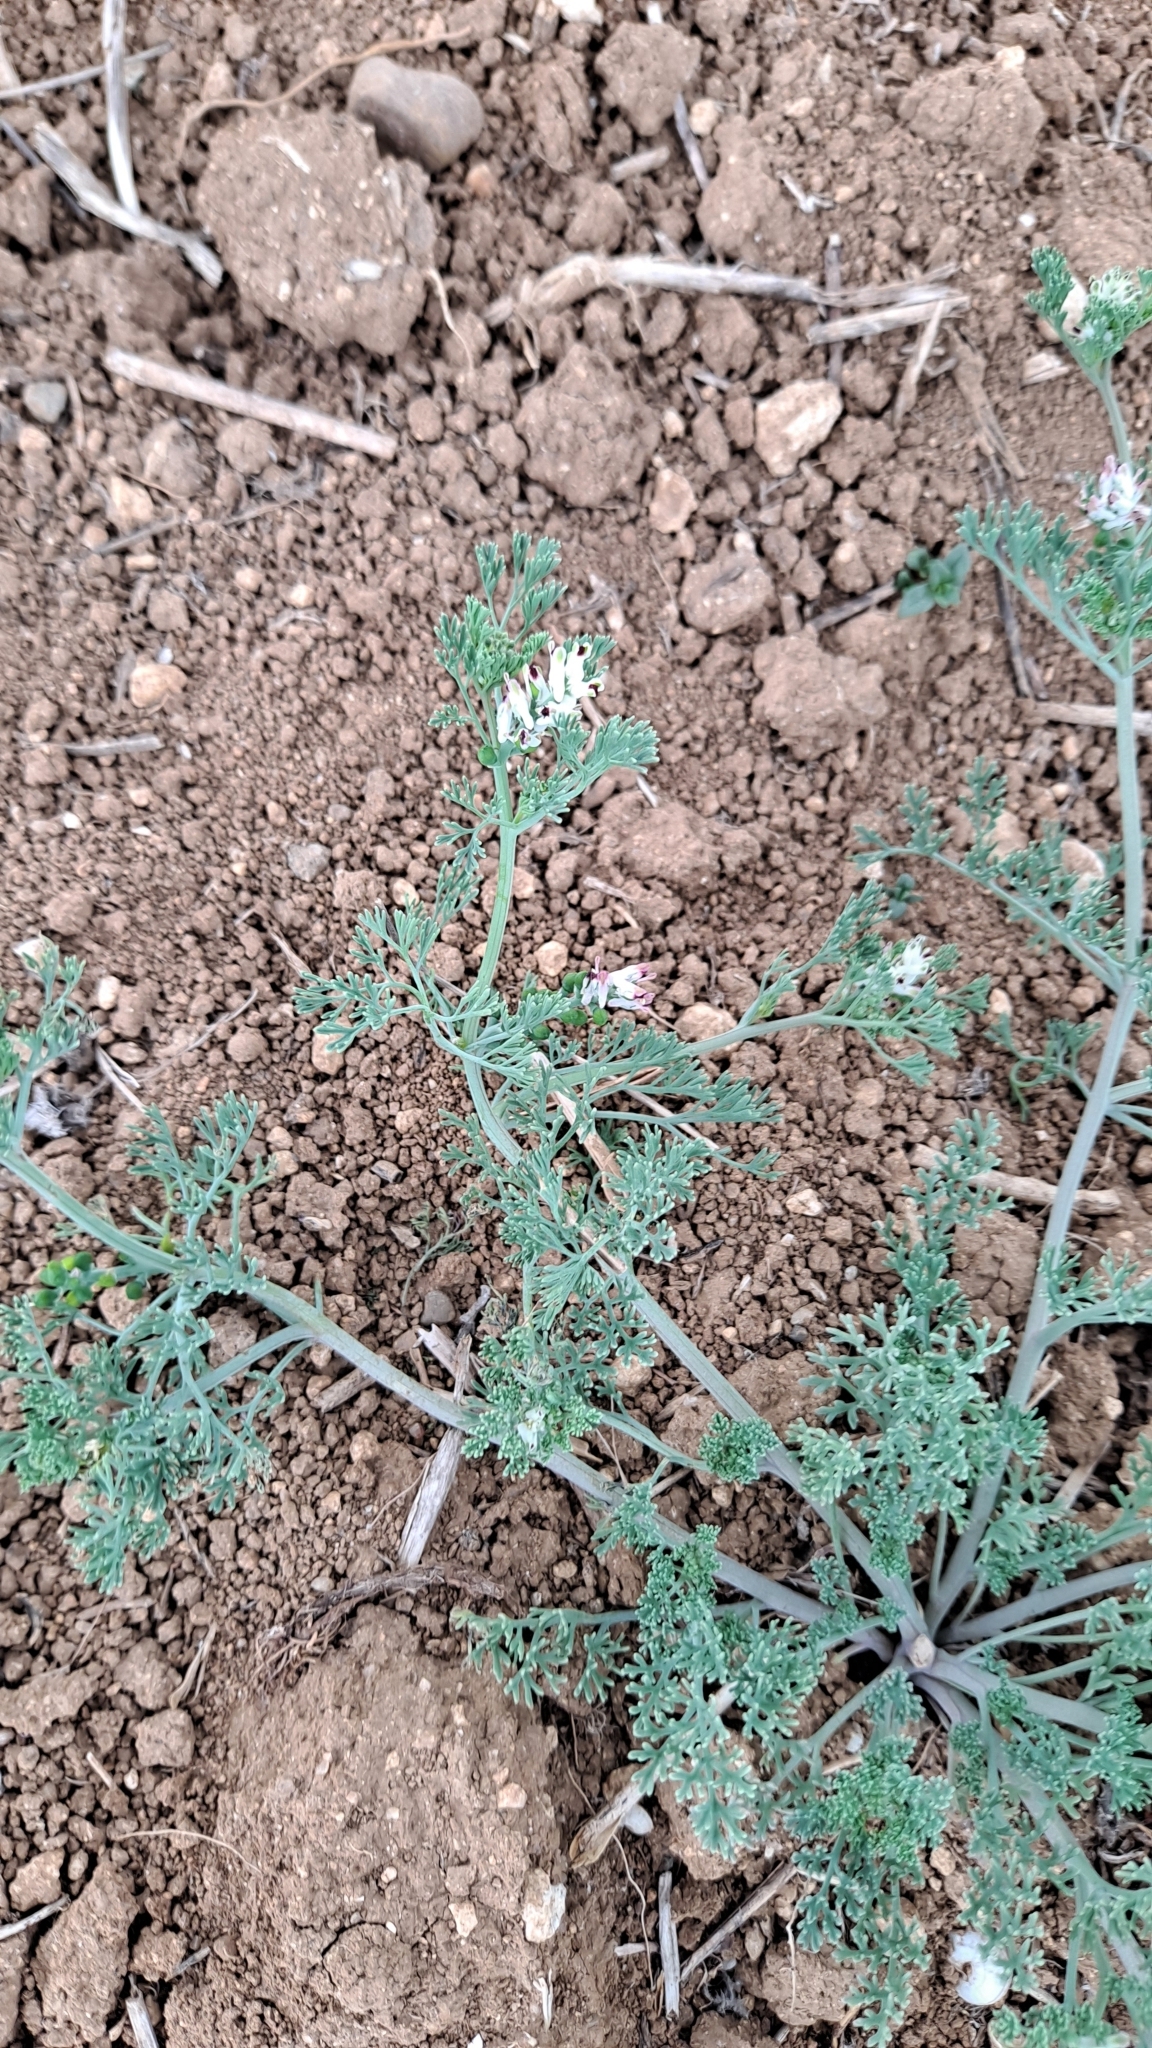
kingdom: Plantae
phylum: Tracheophyta
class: Magnoliopsida
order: Ranunculales
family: Papaveraceae
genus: Fumaria
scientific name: Fumaria parviflora
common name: Fine-leaved fumitory
